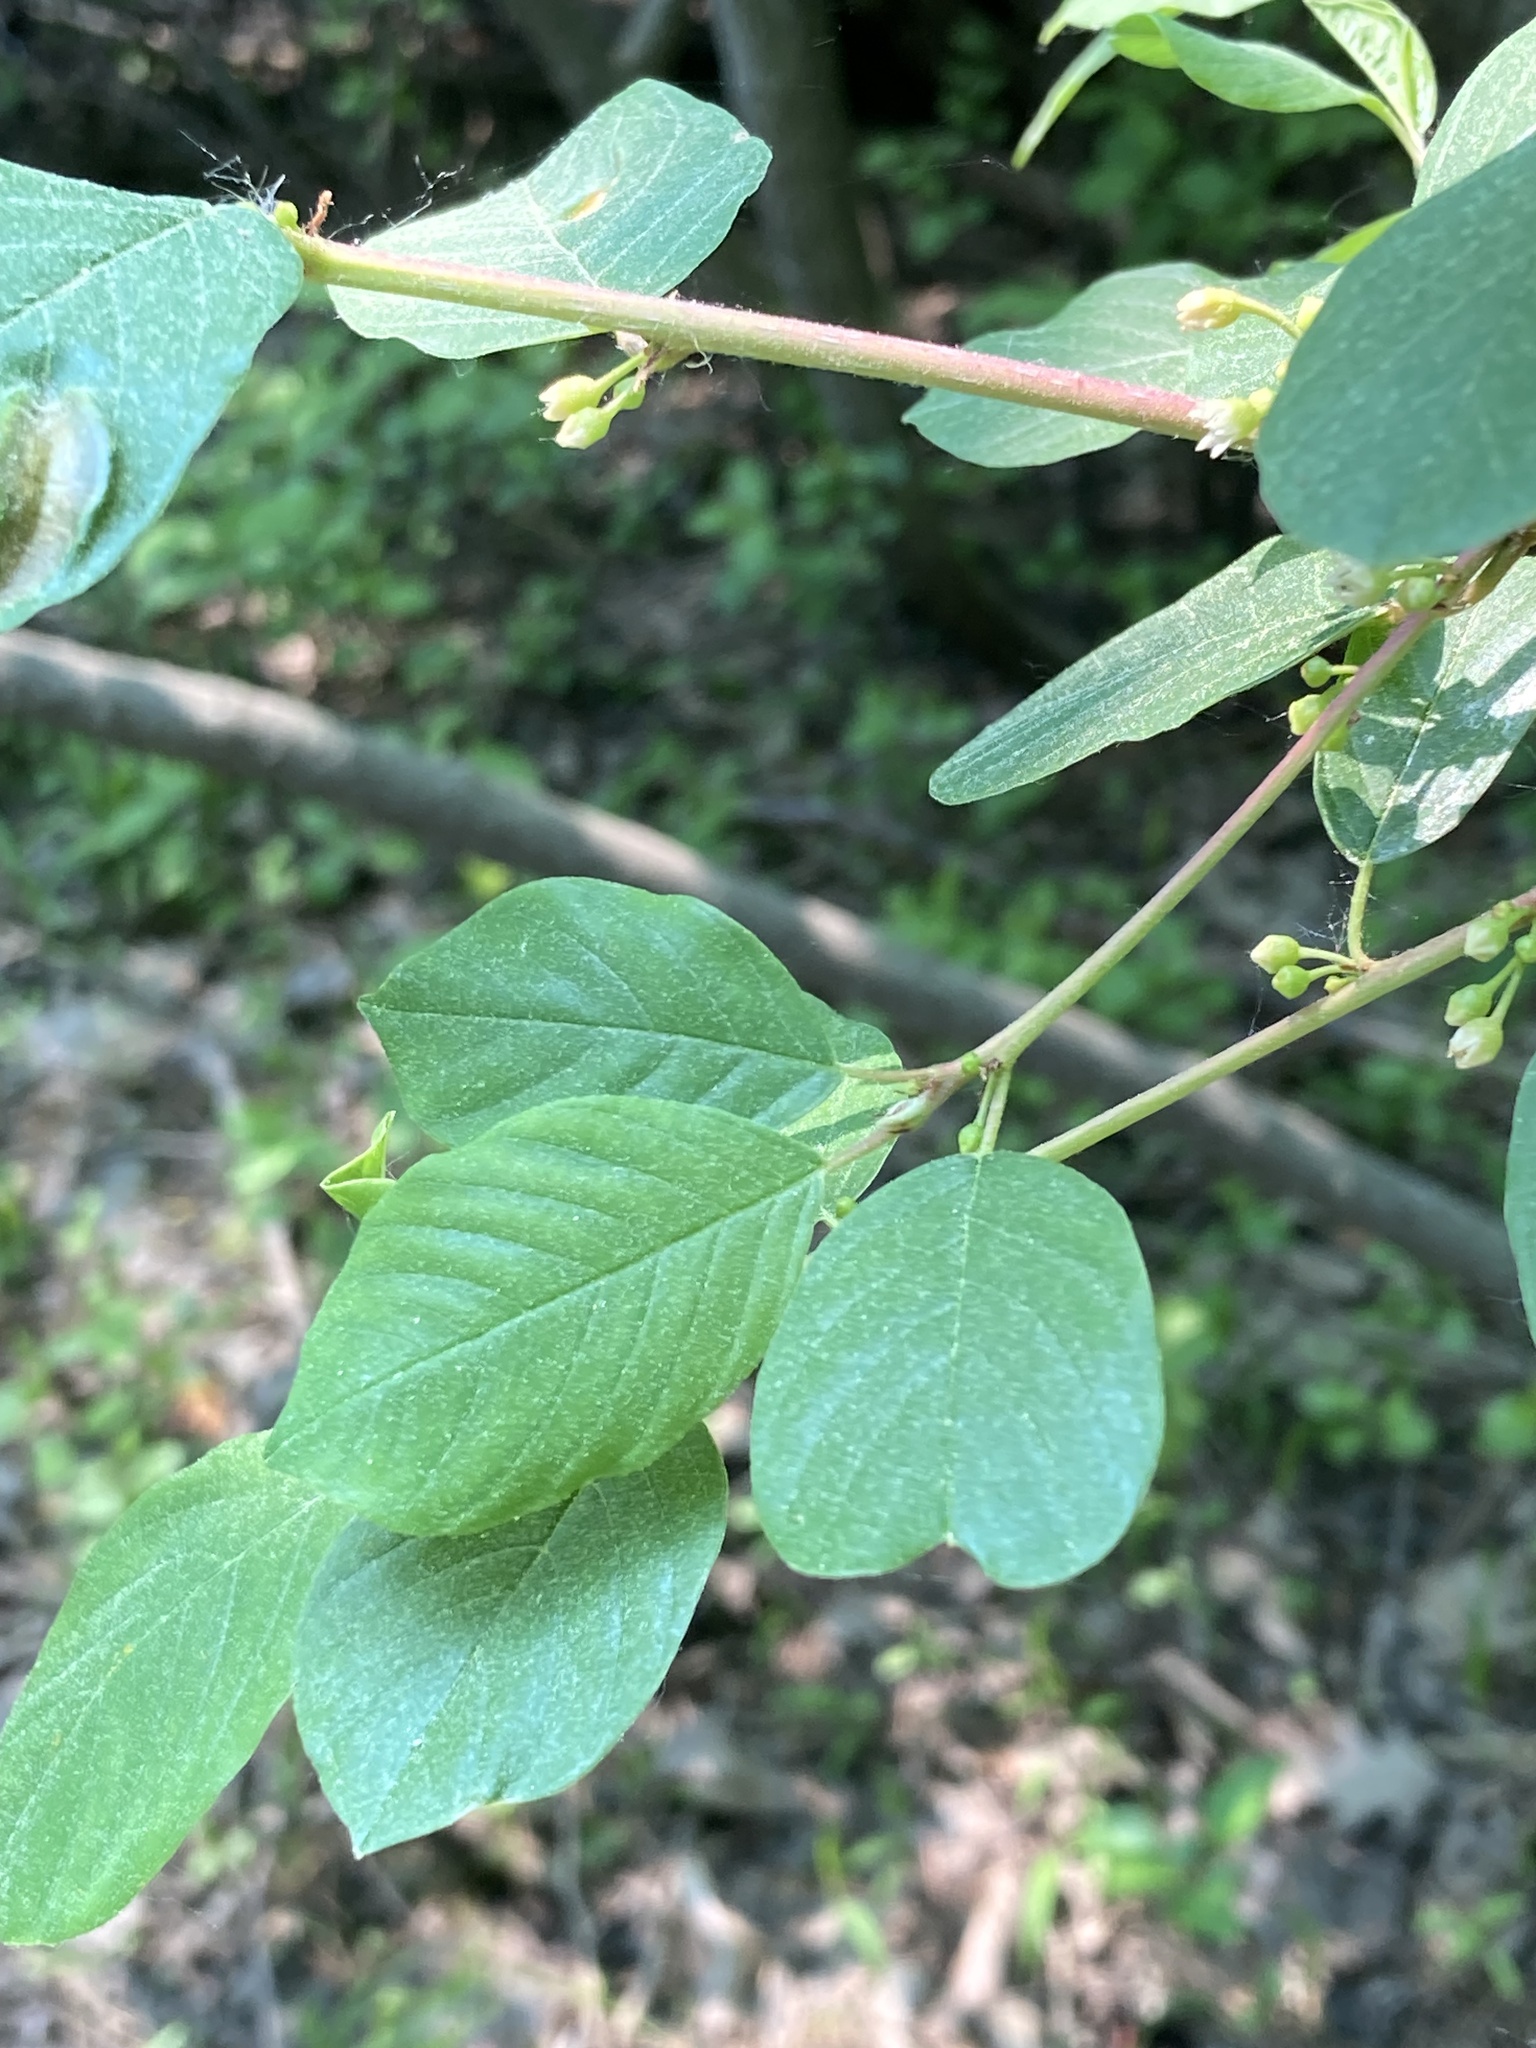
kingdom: Plantae
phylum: Tracheophyta
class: Magnoliopsida
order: Rosales
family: Rhamnaceae
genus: Frangula
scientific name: Frangula alnus
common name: Alder buckthorn
